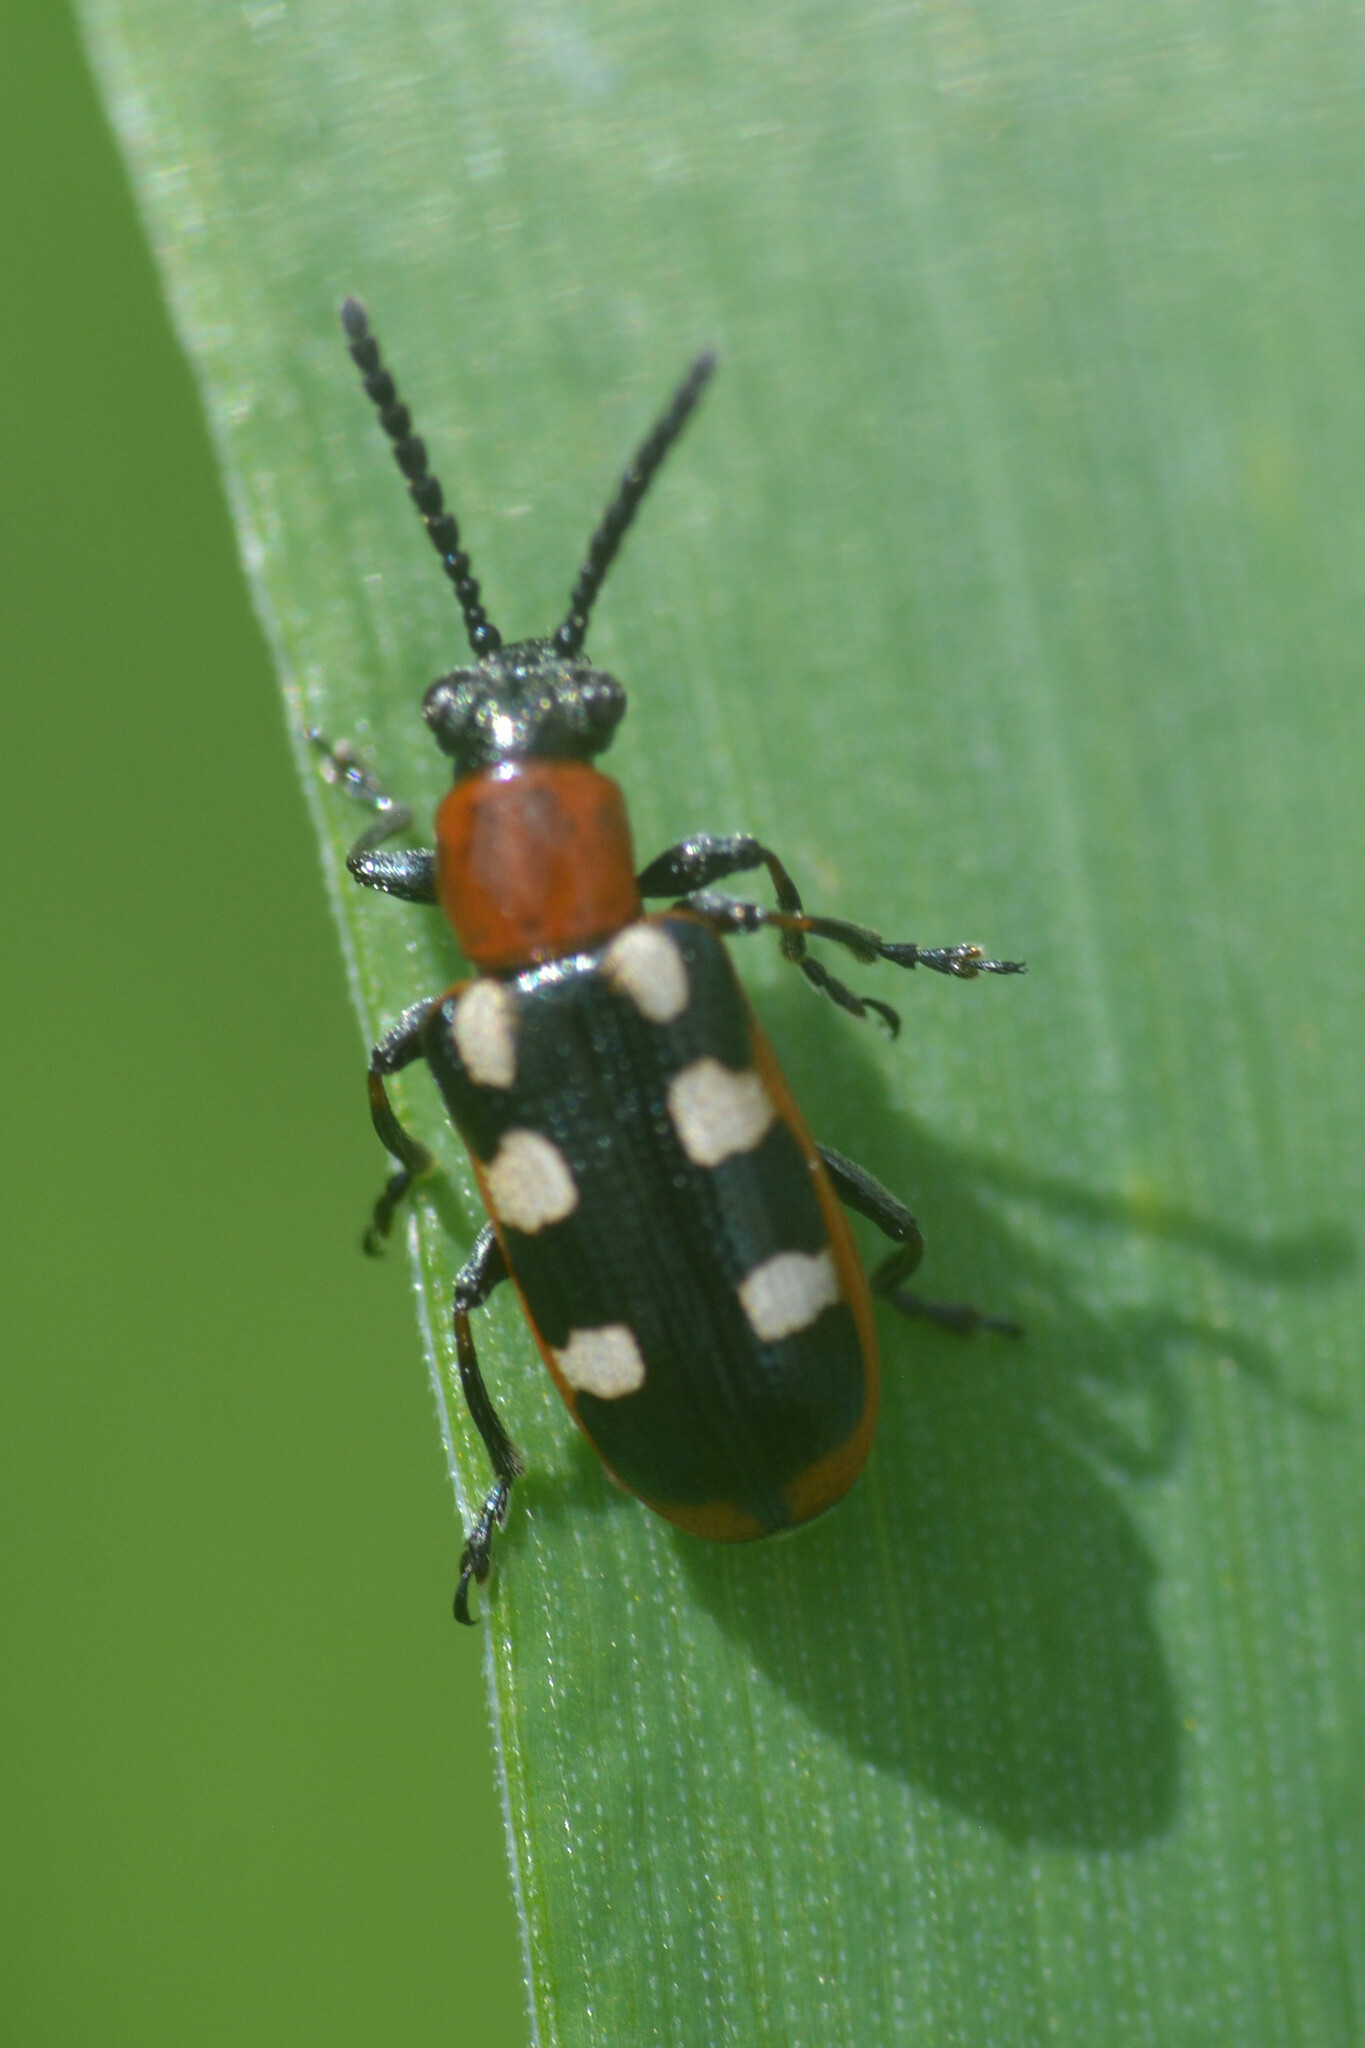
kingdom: Animalia
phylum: Arthropoda
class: Insecta
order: Coleoptera
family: Chrysomelidae
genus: Crioceris
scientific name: Crioceris asparagi
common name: Asparagus beetle
